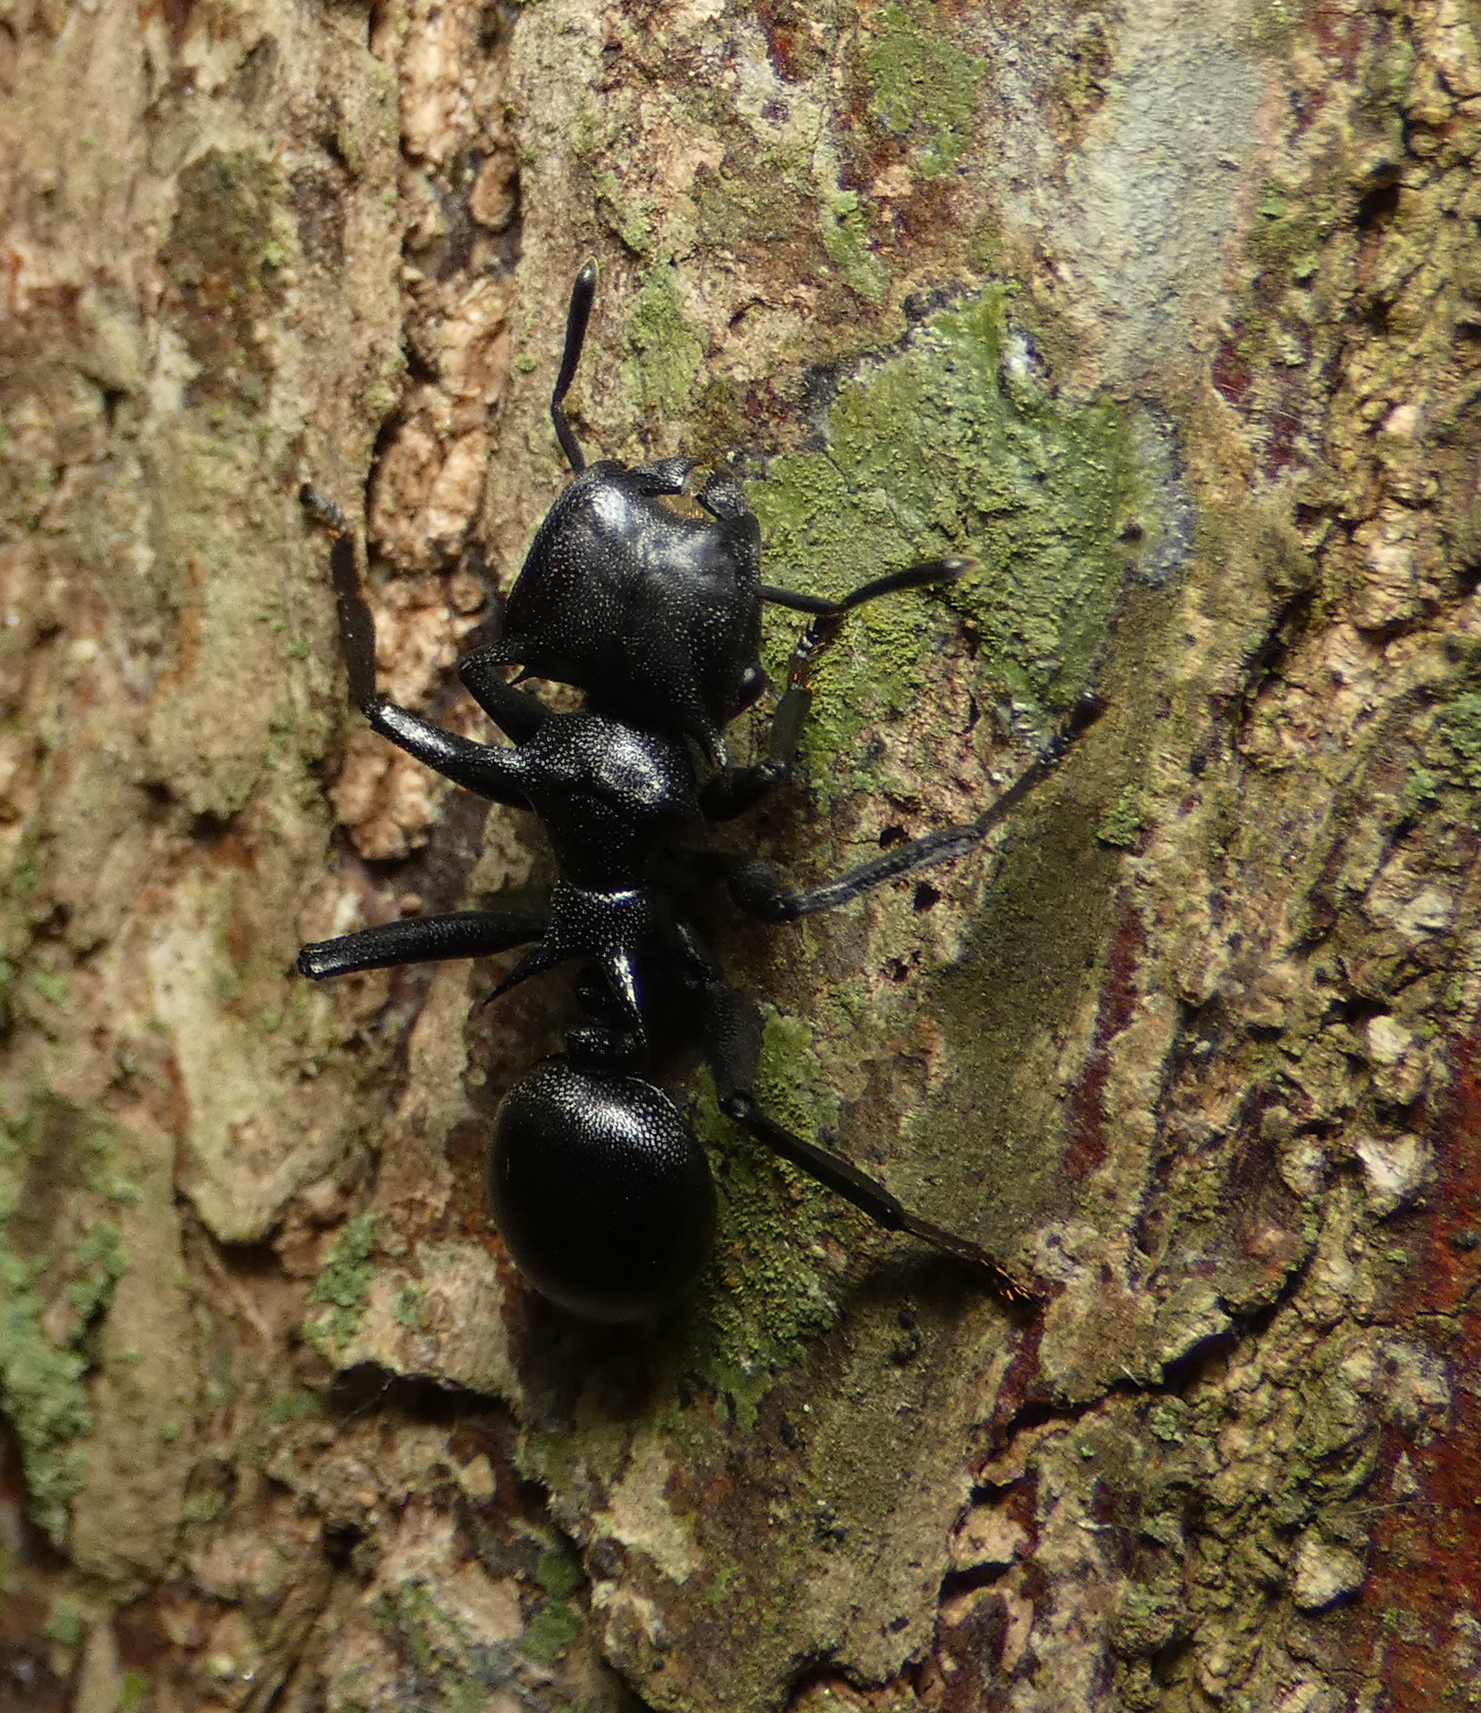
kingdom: Animalia
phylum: Arthropoda
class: Insecta
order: Hymenoptera
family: Formicidae
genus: Cephalotes
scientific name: Cephalotes atratus
